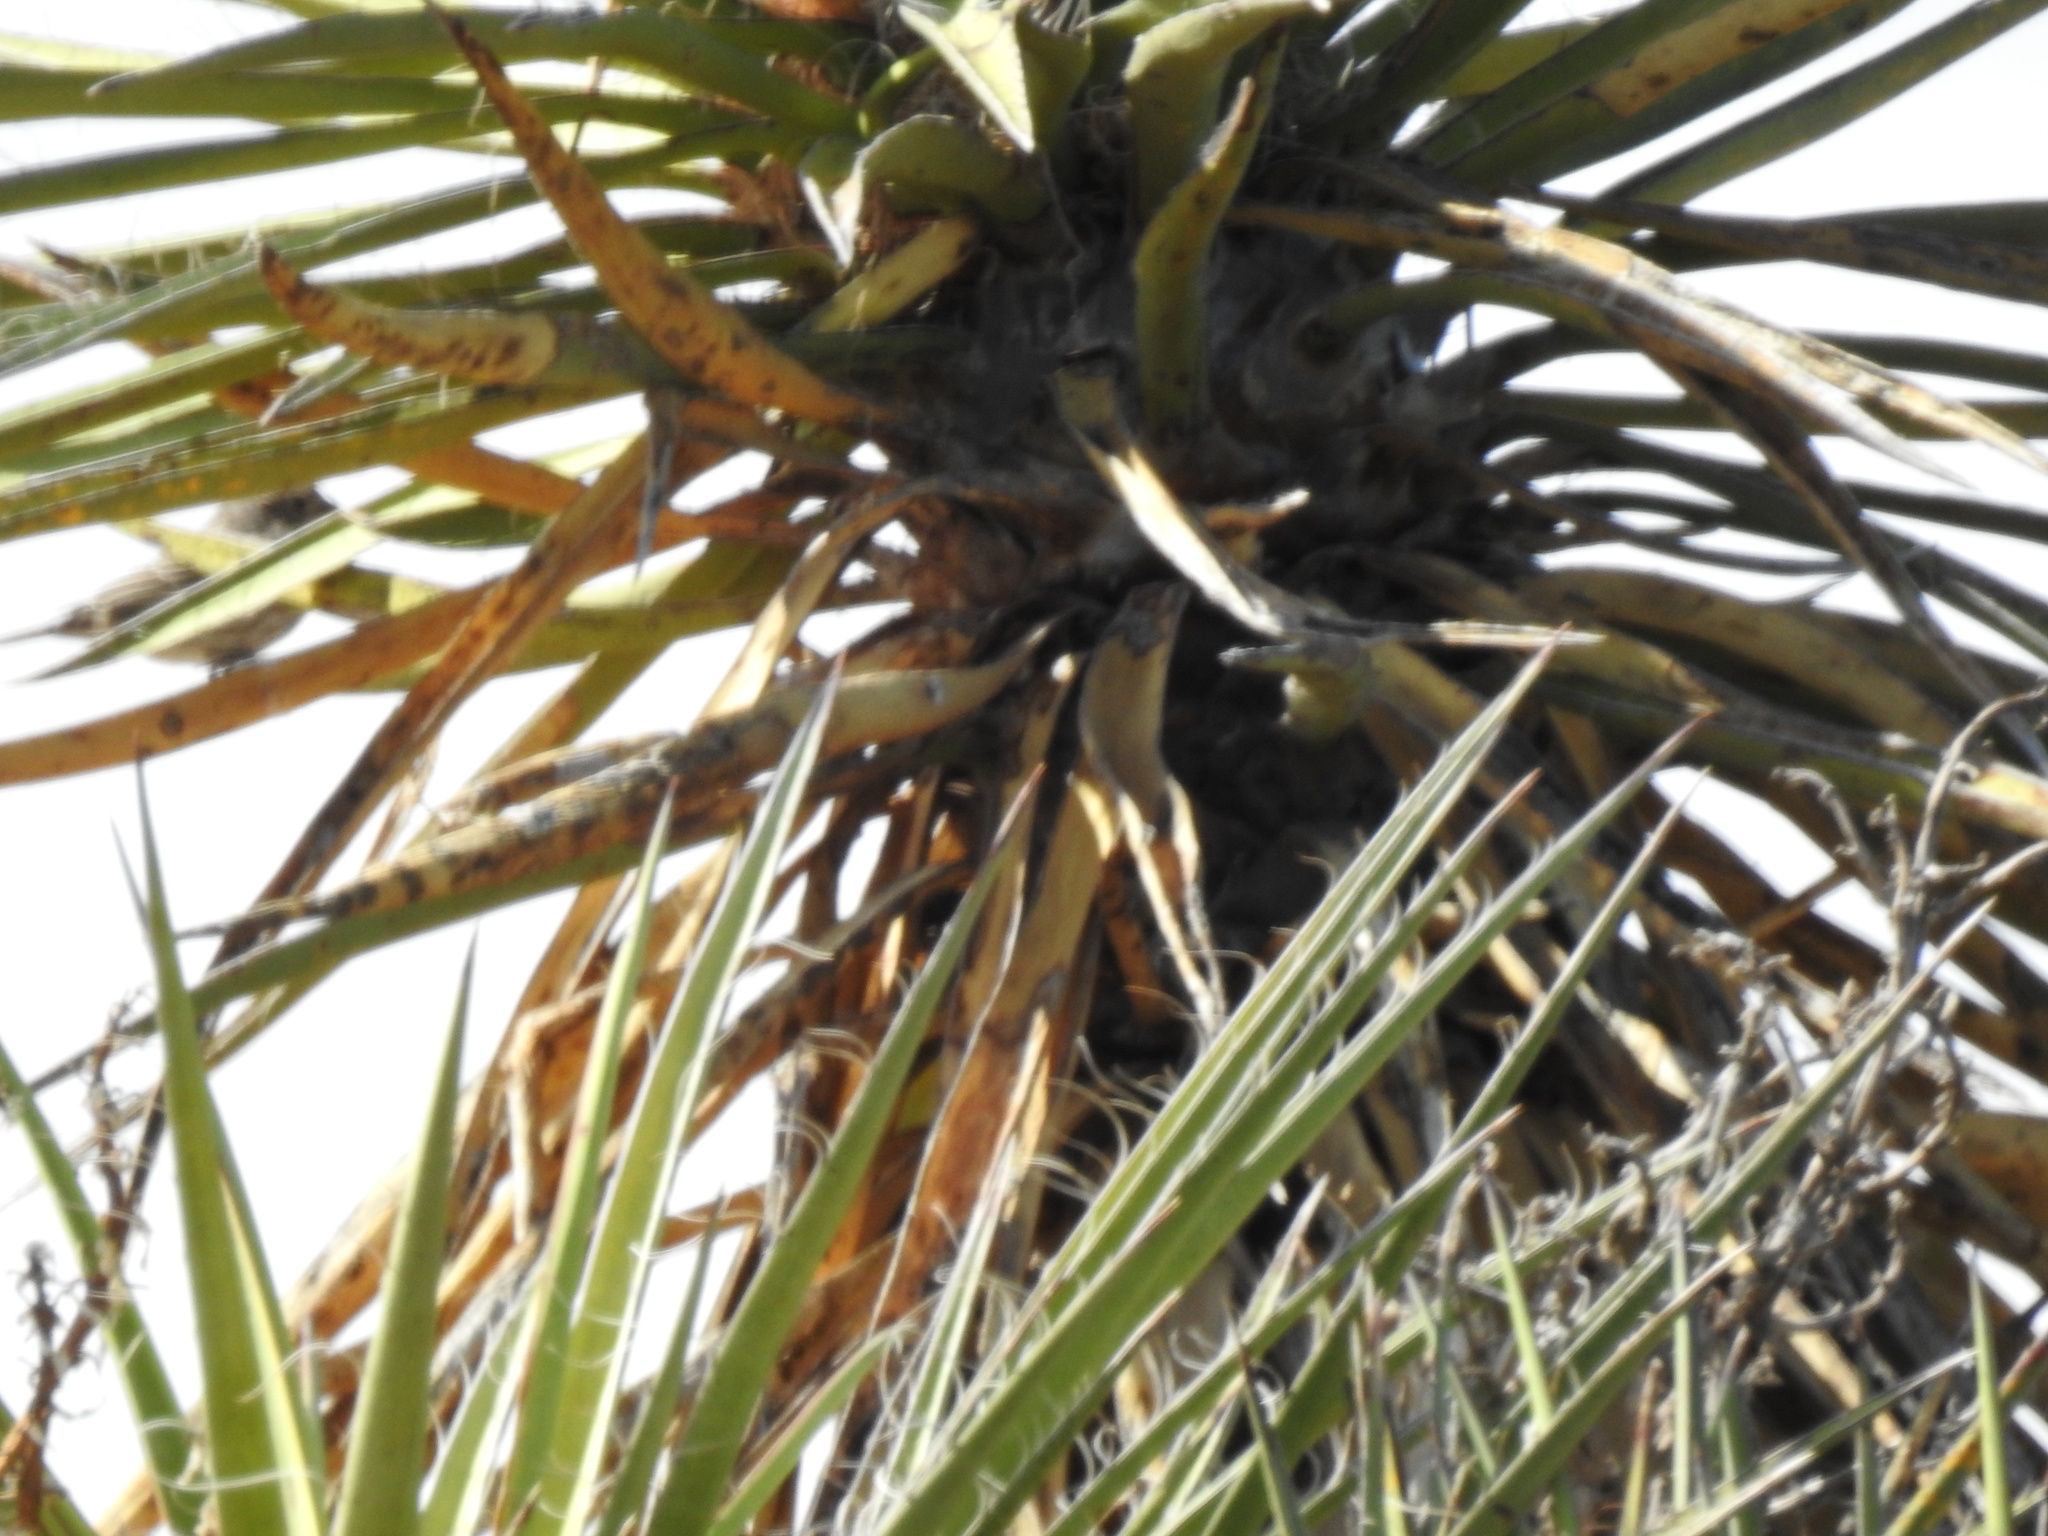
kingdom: Plantae
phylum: Tracheophyta
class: Liliopsida
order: Asparagales
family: Asparagaceae
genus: Yucca
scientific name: Yucca treculiana
